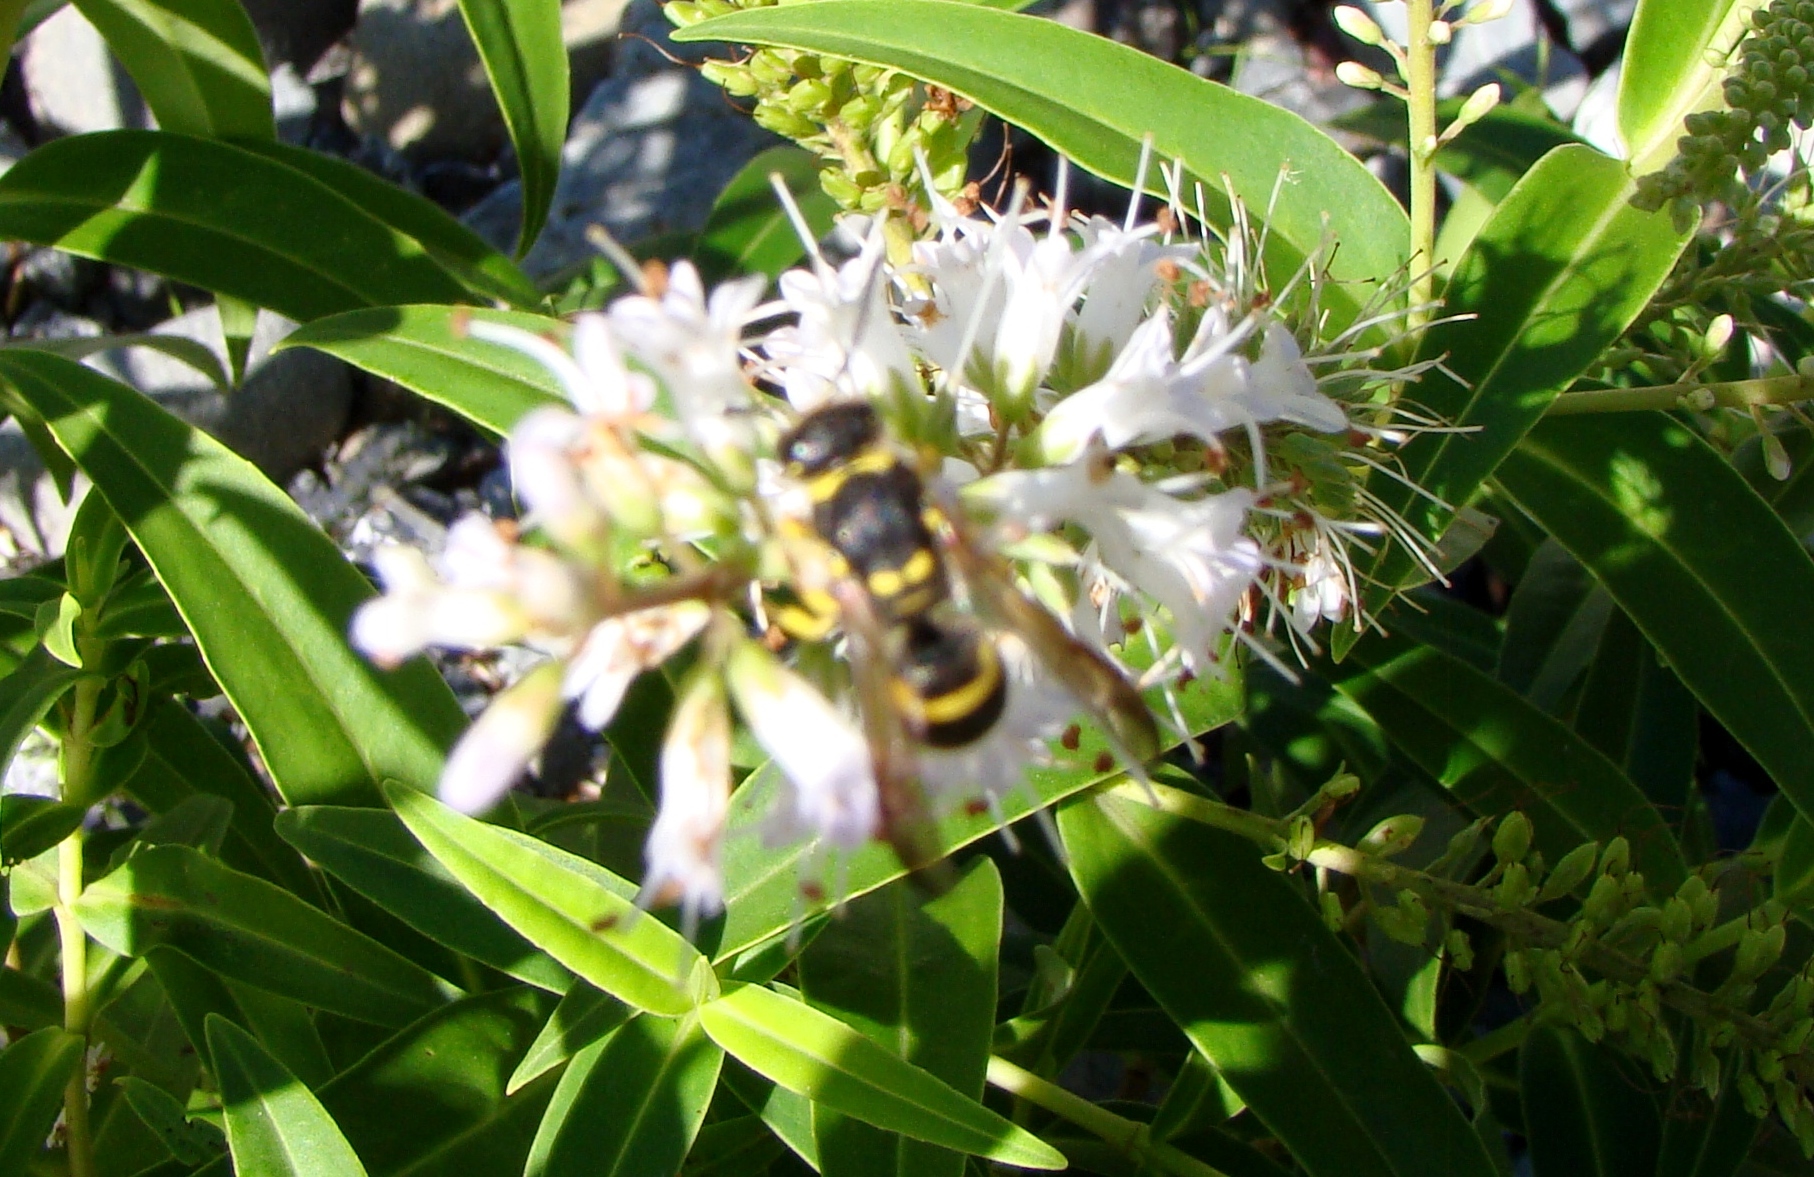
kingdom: Animalia
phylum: Arthropoda
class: Insecta
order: Hymenoptera
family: Vespidae
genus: Ancistrocerus
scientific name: Ancistrocerus gazella
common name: European tube wasp
